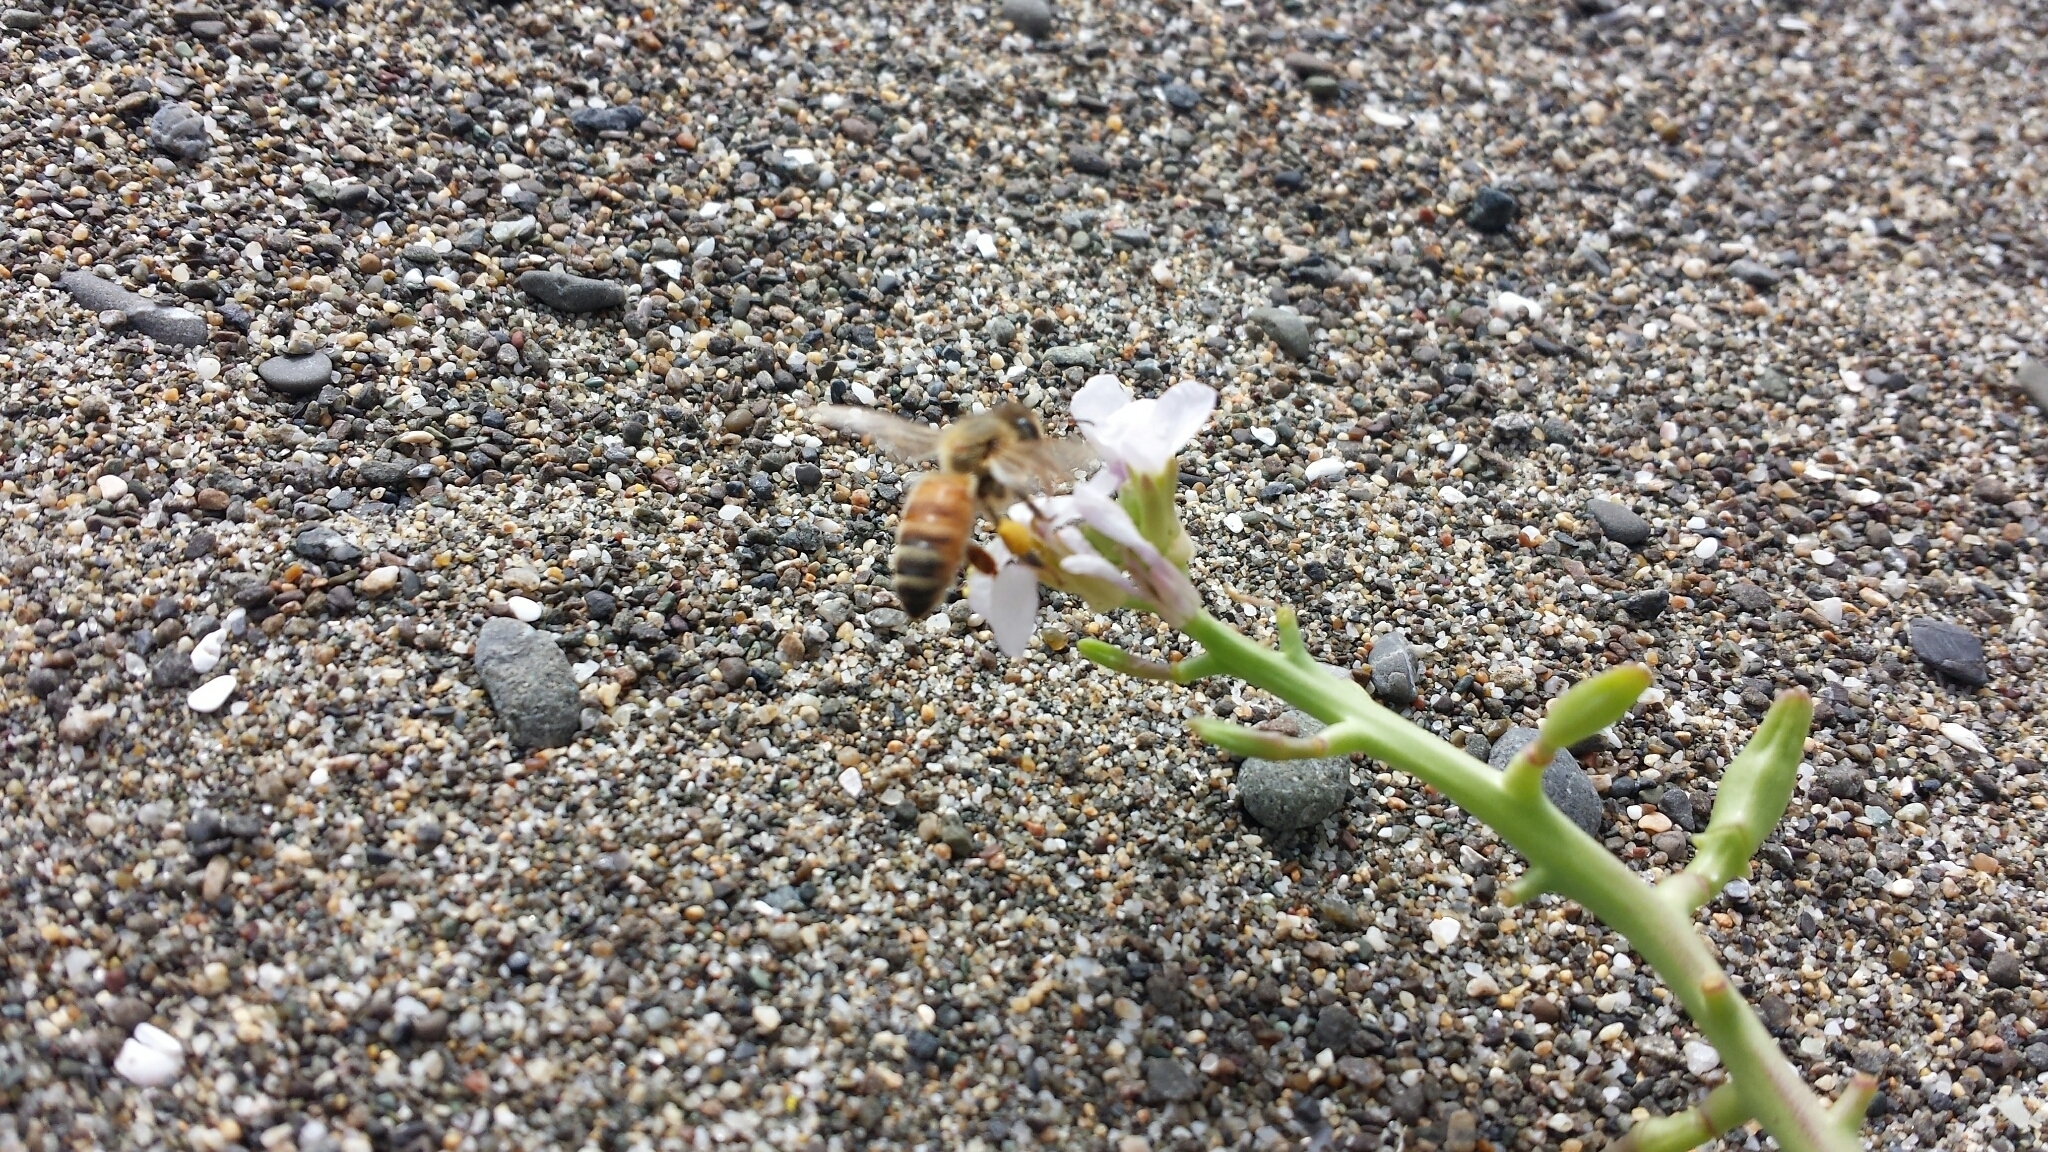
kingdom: Animalia
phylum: Arthropoda
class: Insecta
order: Hymenoptera
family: Apidae
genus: Apis
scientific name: Apis mellifera
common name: Honey bee
